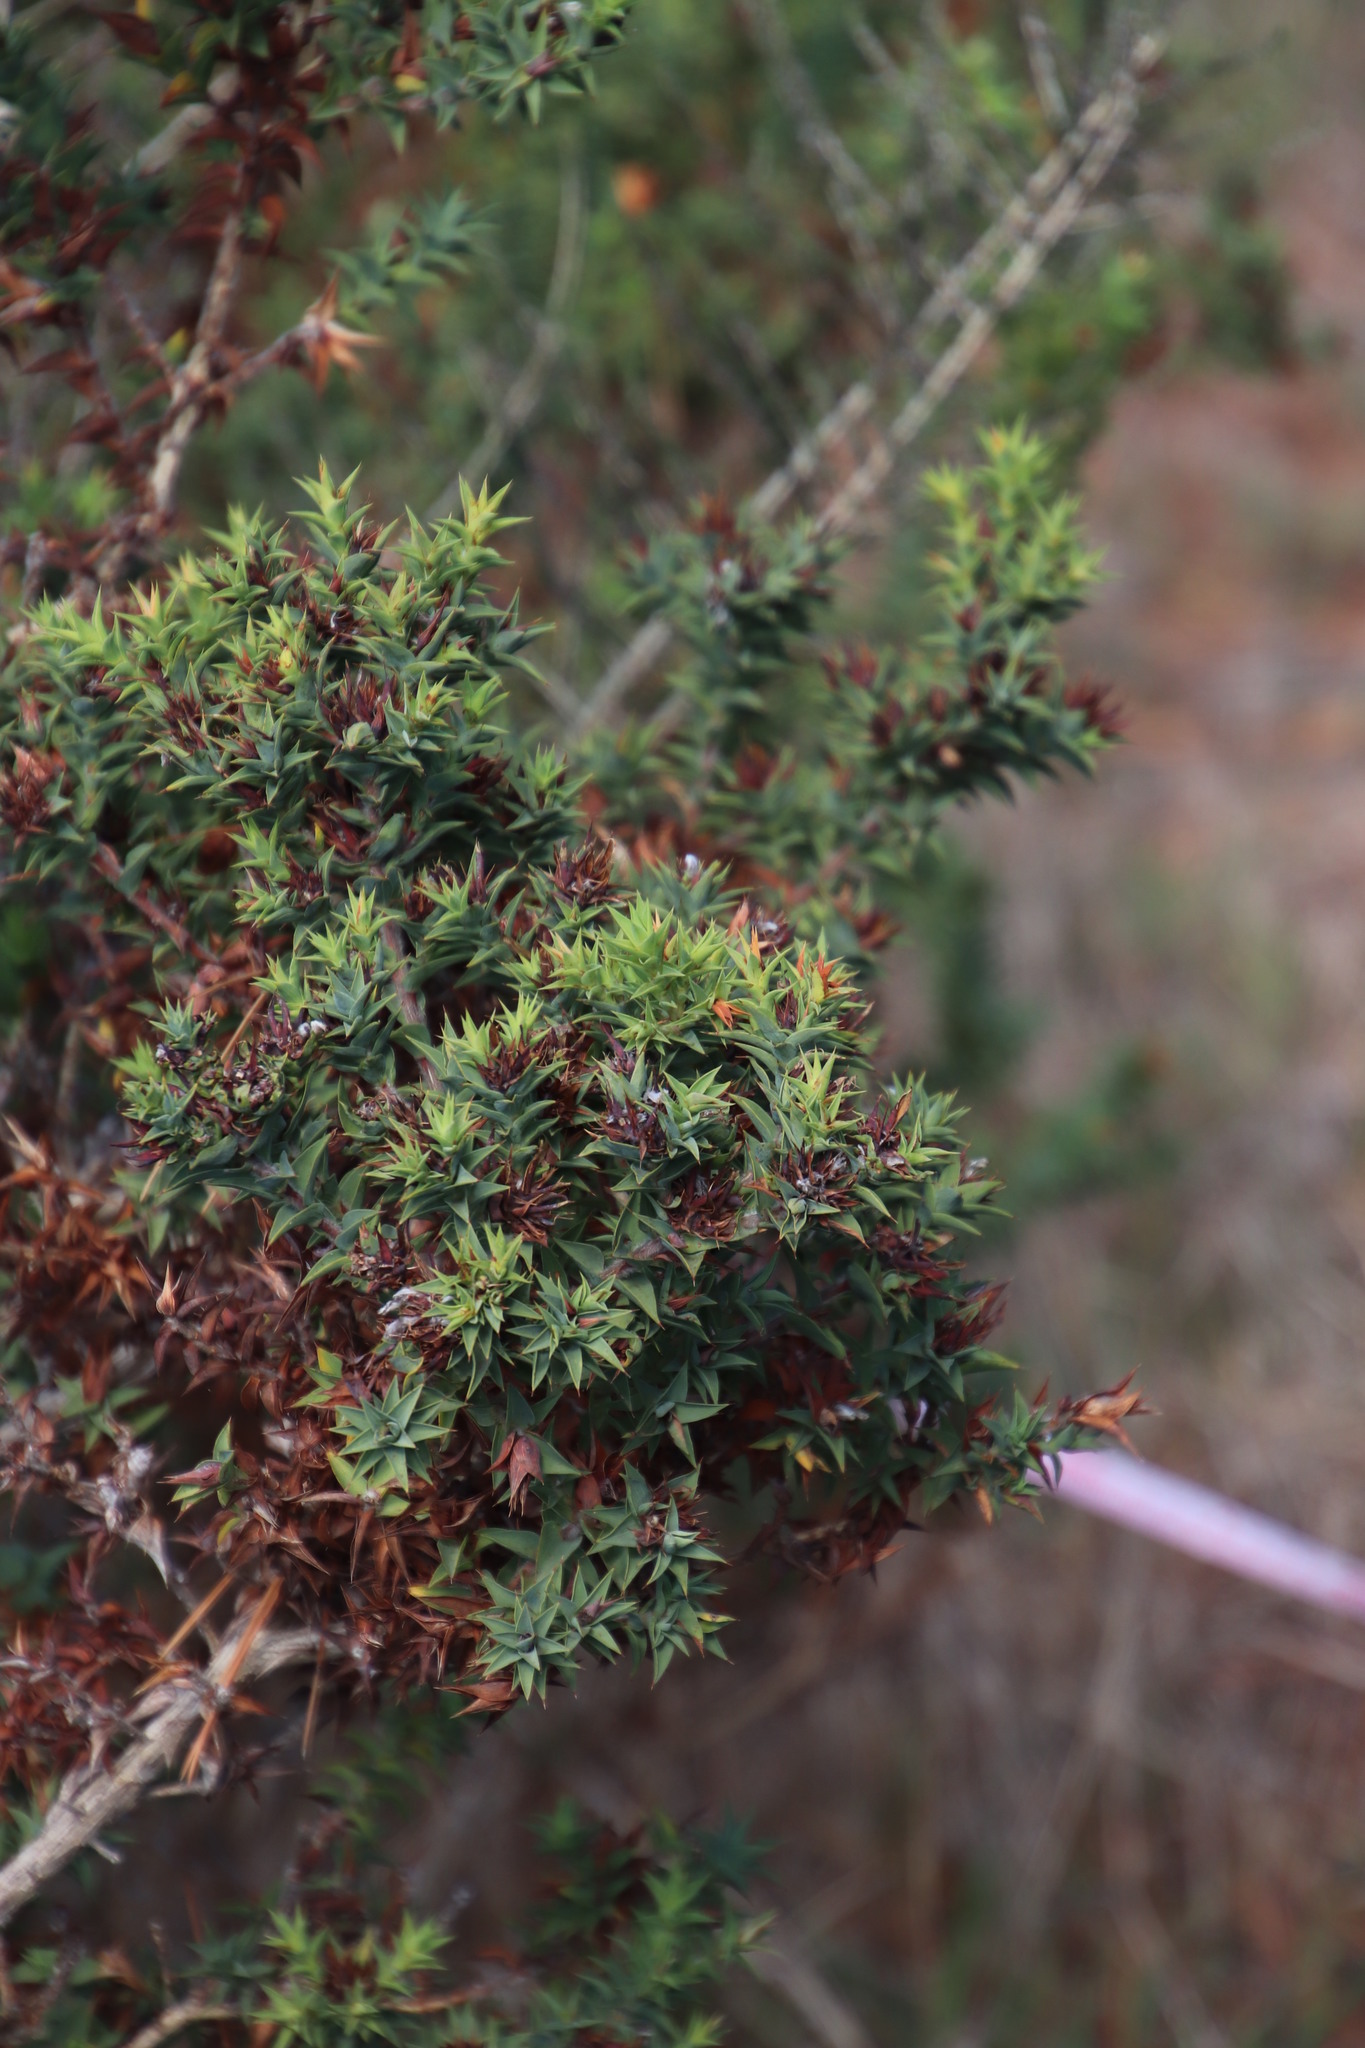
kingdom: Plantae
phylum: Tracheophyta
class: Magnoliopsida
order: Fabales
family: Fabaceae
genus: Aspalathus
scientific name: Aspalathus cordata
